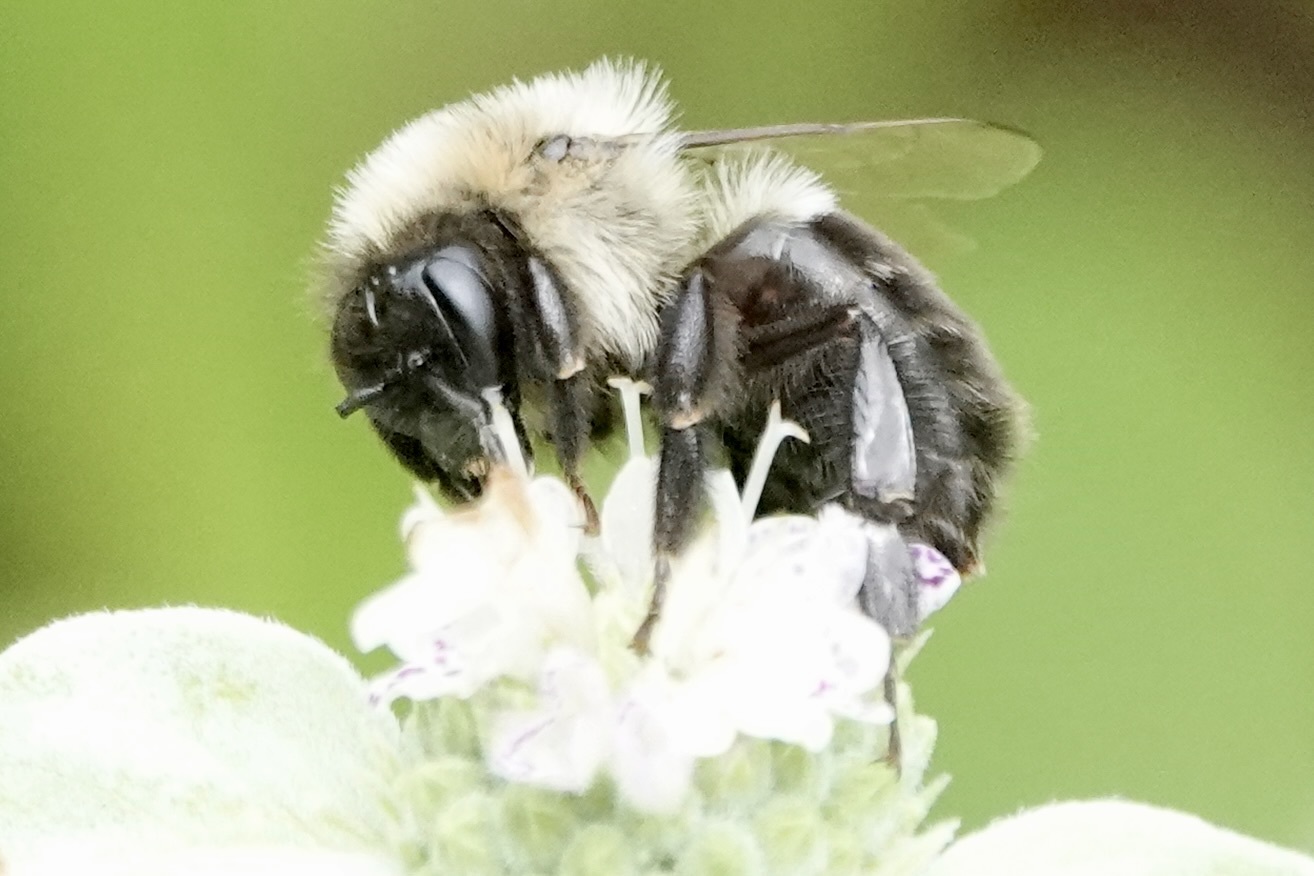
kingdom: Animalia
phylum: Arthropoda
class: Insecta
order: Hymenoptera
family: Apidae
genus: Bombus
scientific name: Bombus impatiens
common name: Common eastern bumble bee
